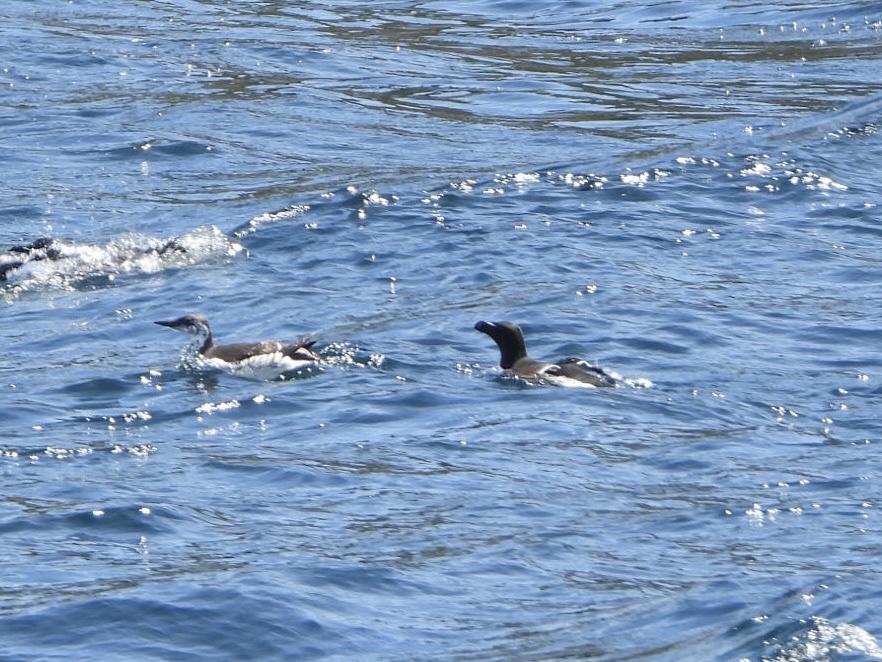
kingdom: Animalia
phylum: Chordata
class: Aves
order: Charadriiformes
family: Alcidae
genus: Uria
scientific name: Uria aalge
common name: Common murre
